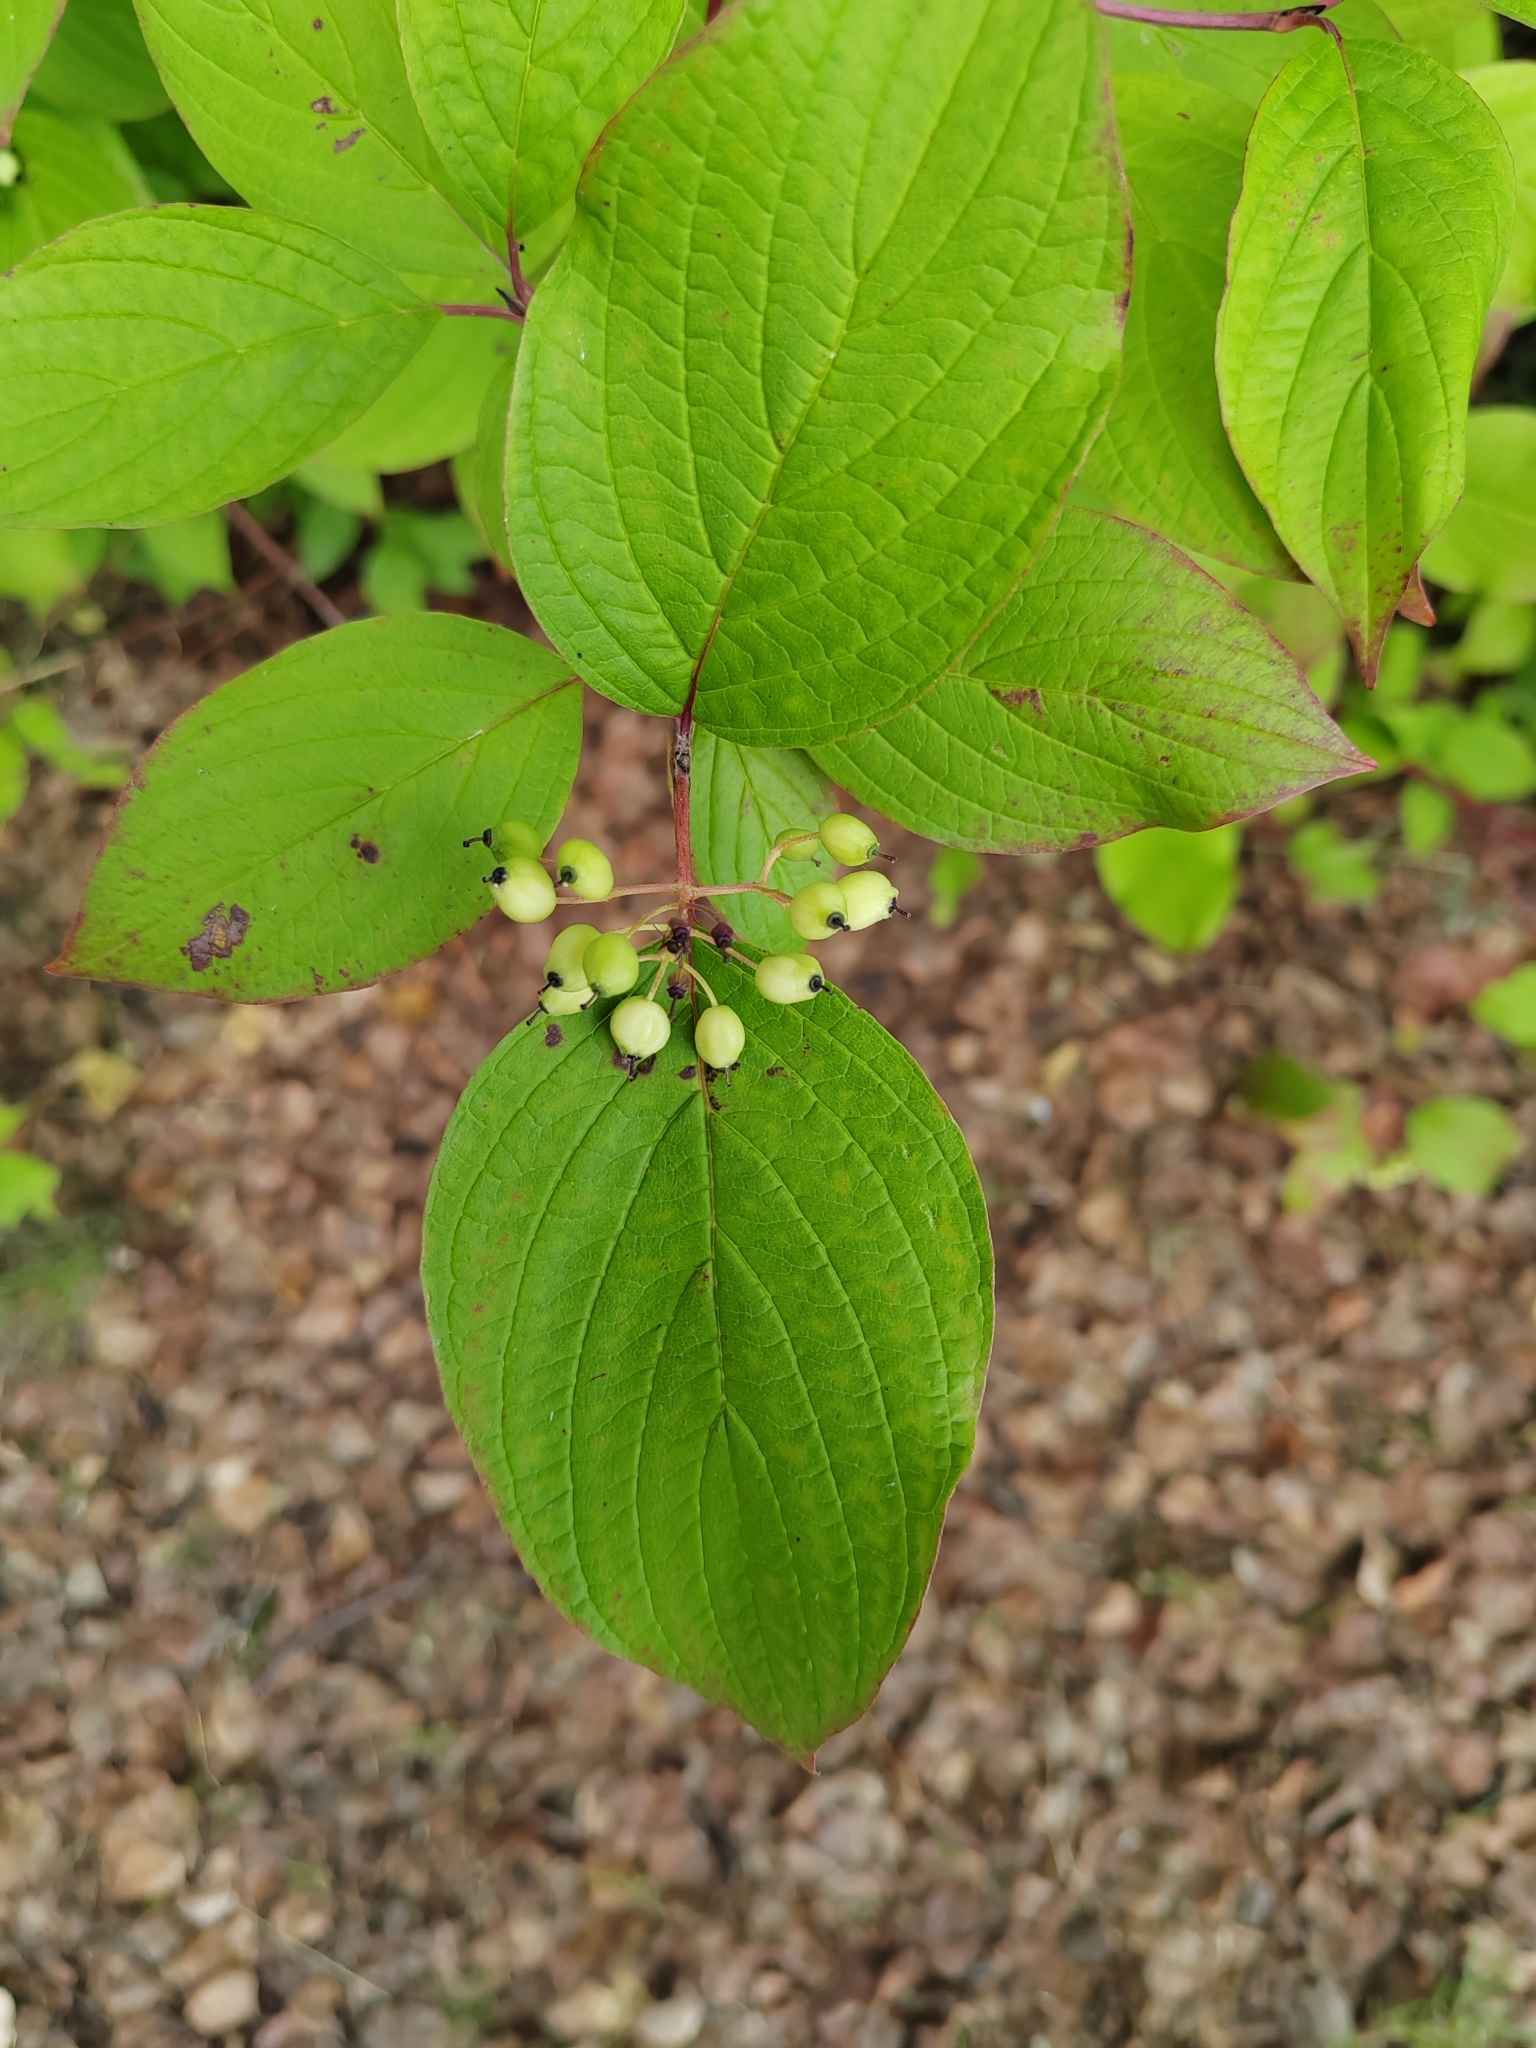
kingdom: Plantae
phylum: Tracheophyta
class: Magnoliopsida
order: Cornales
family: Cornaceae
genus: Cornus
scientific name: Cornus alba
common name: White dogwood
